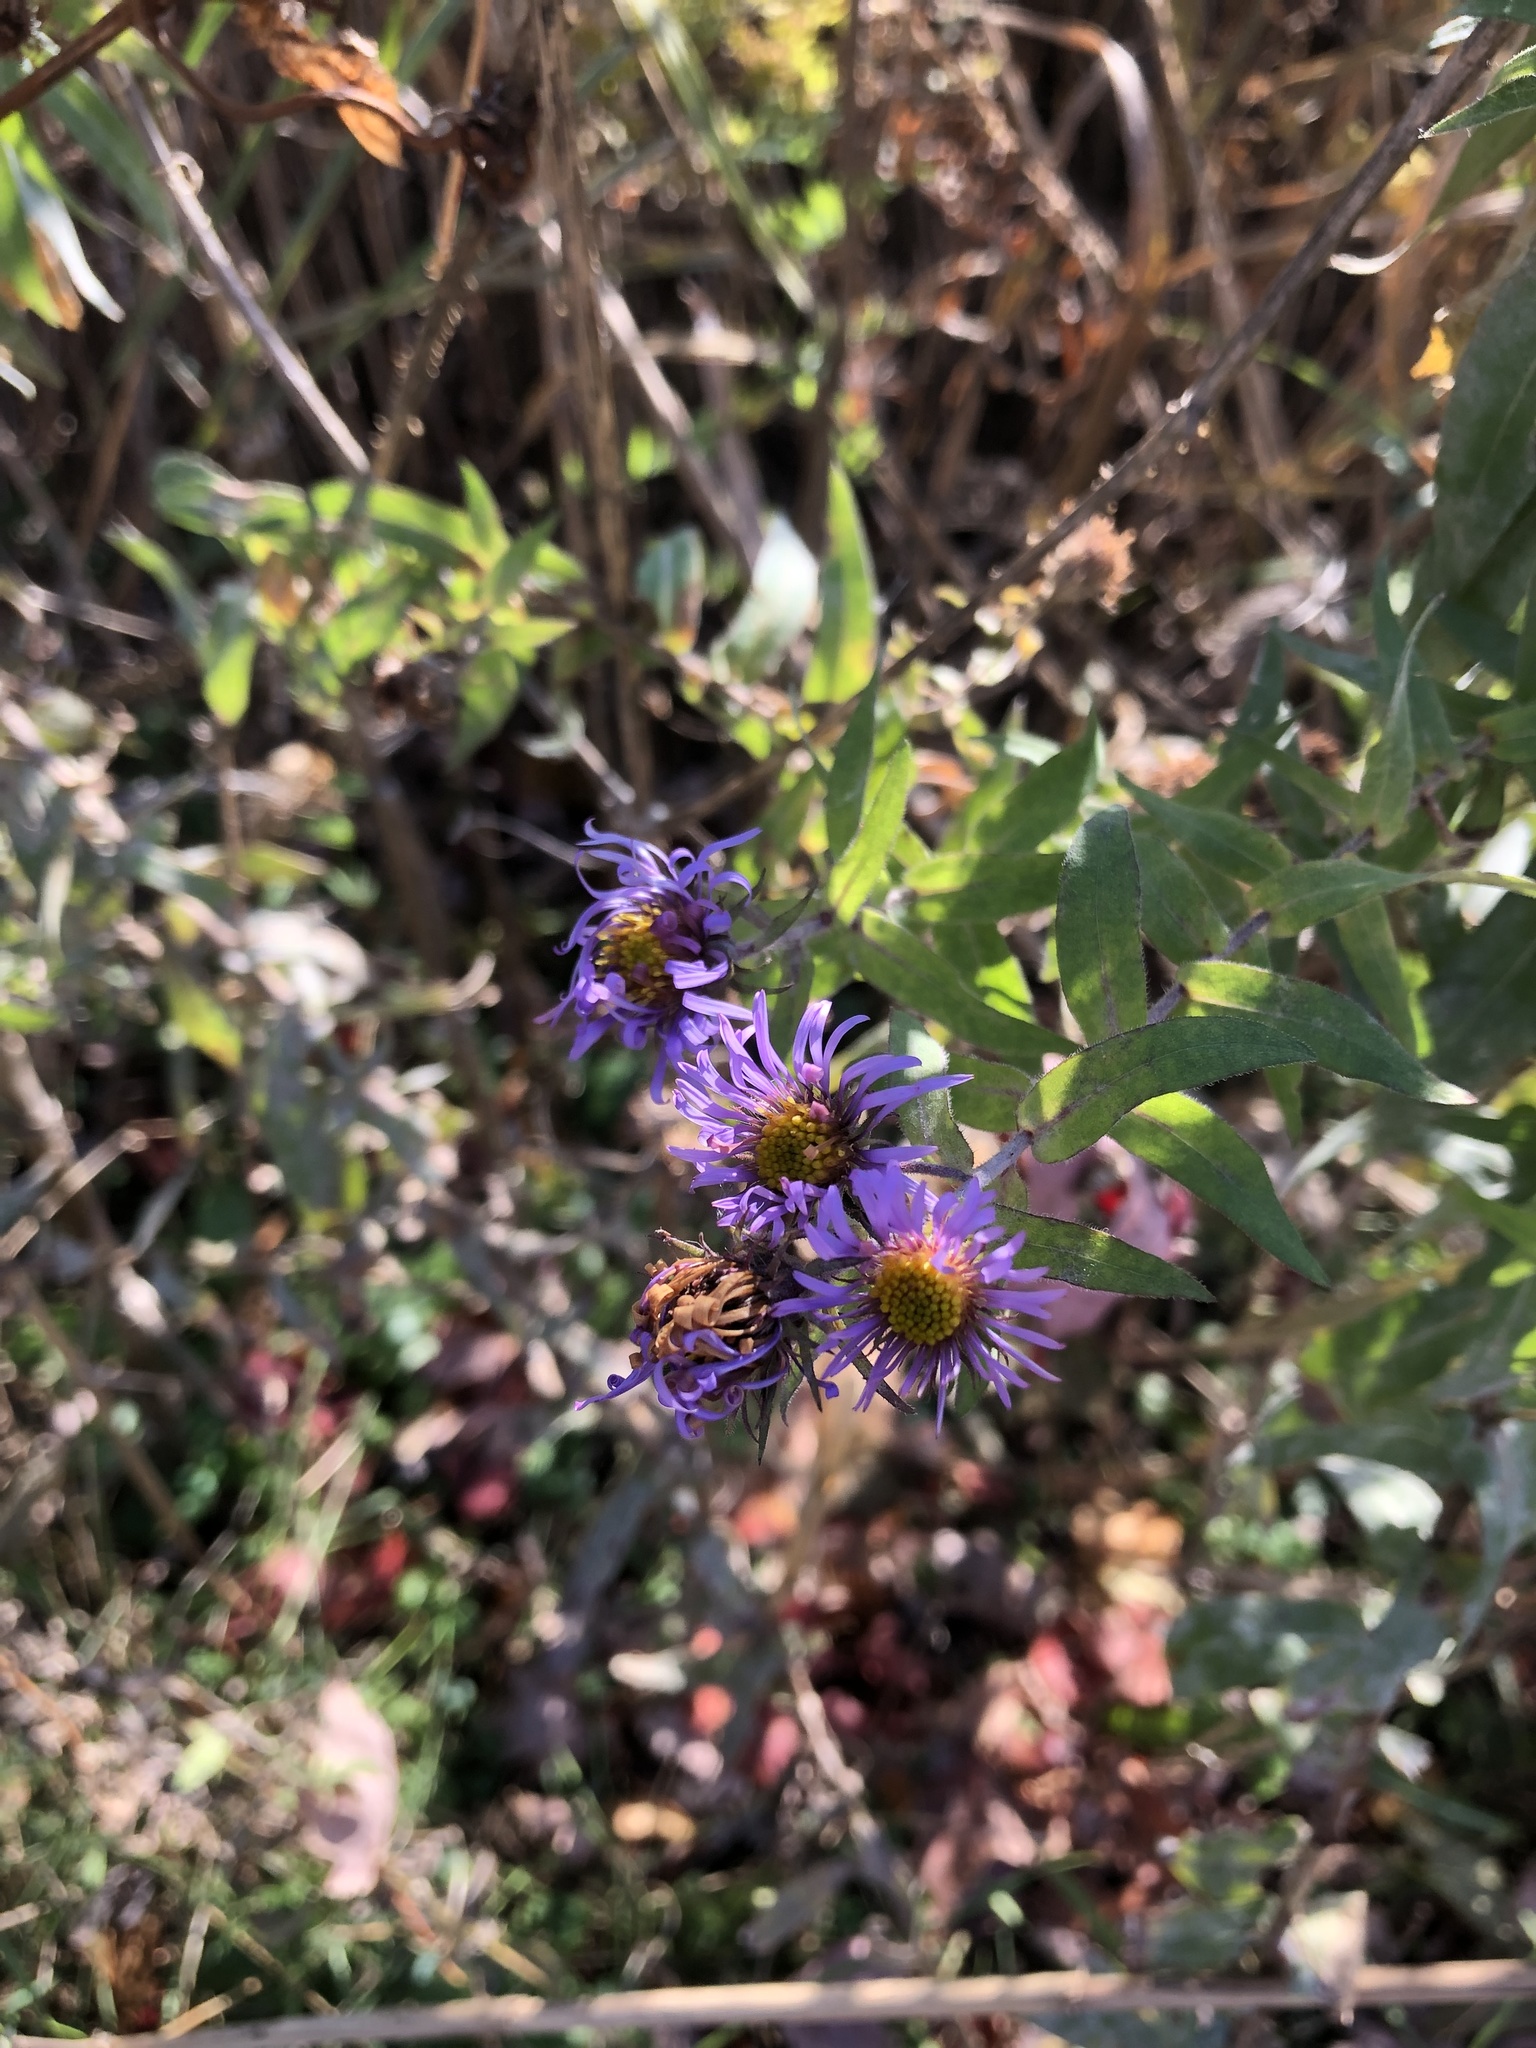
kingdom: Plantae
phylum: Tracheophyta
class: Magnoliopsida
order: Asterales
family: Asteraceae
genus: Symphyotrichum
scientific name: Symphyotrichum novae-angliae
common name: Michaelmas daisy
